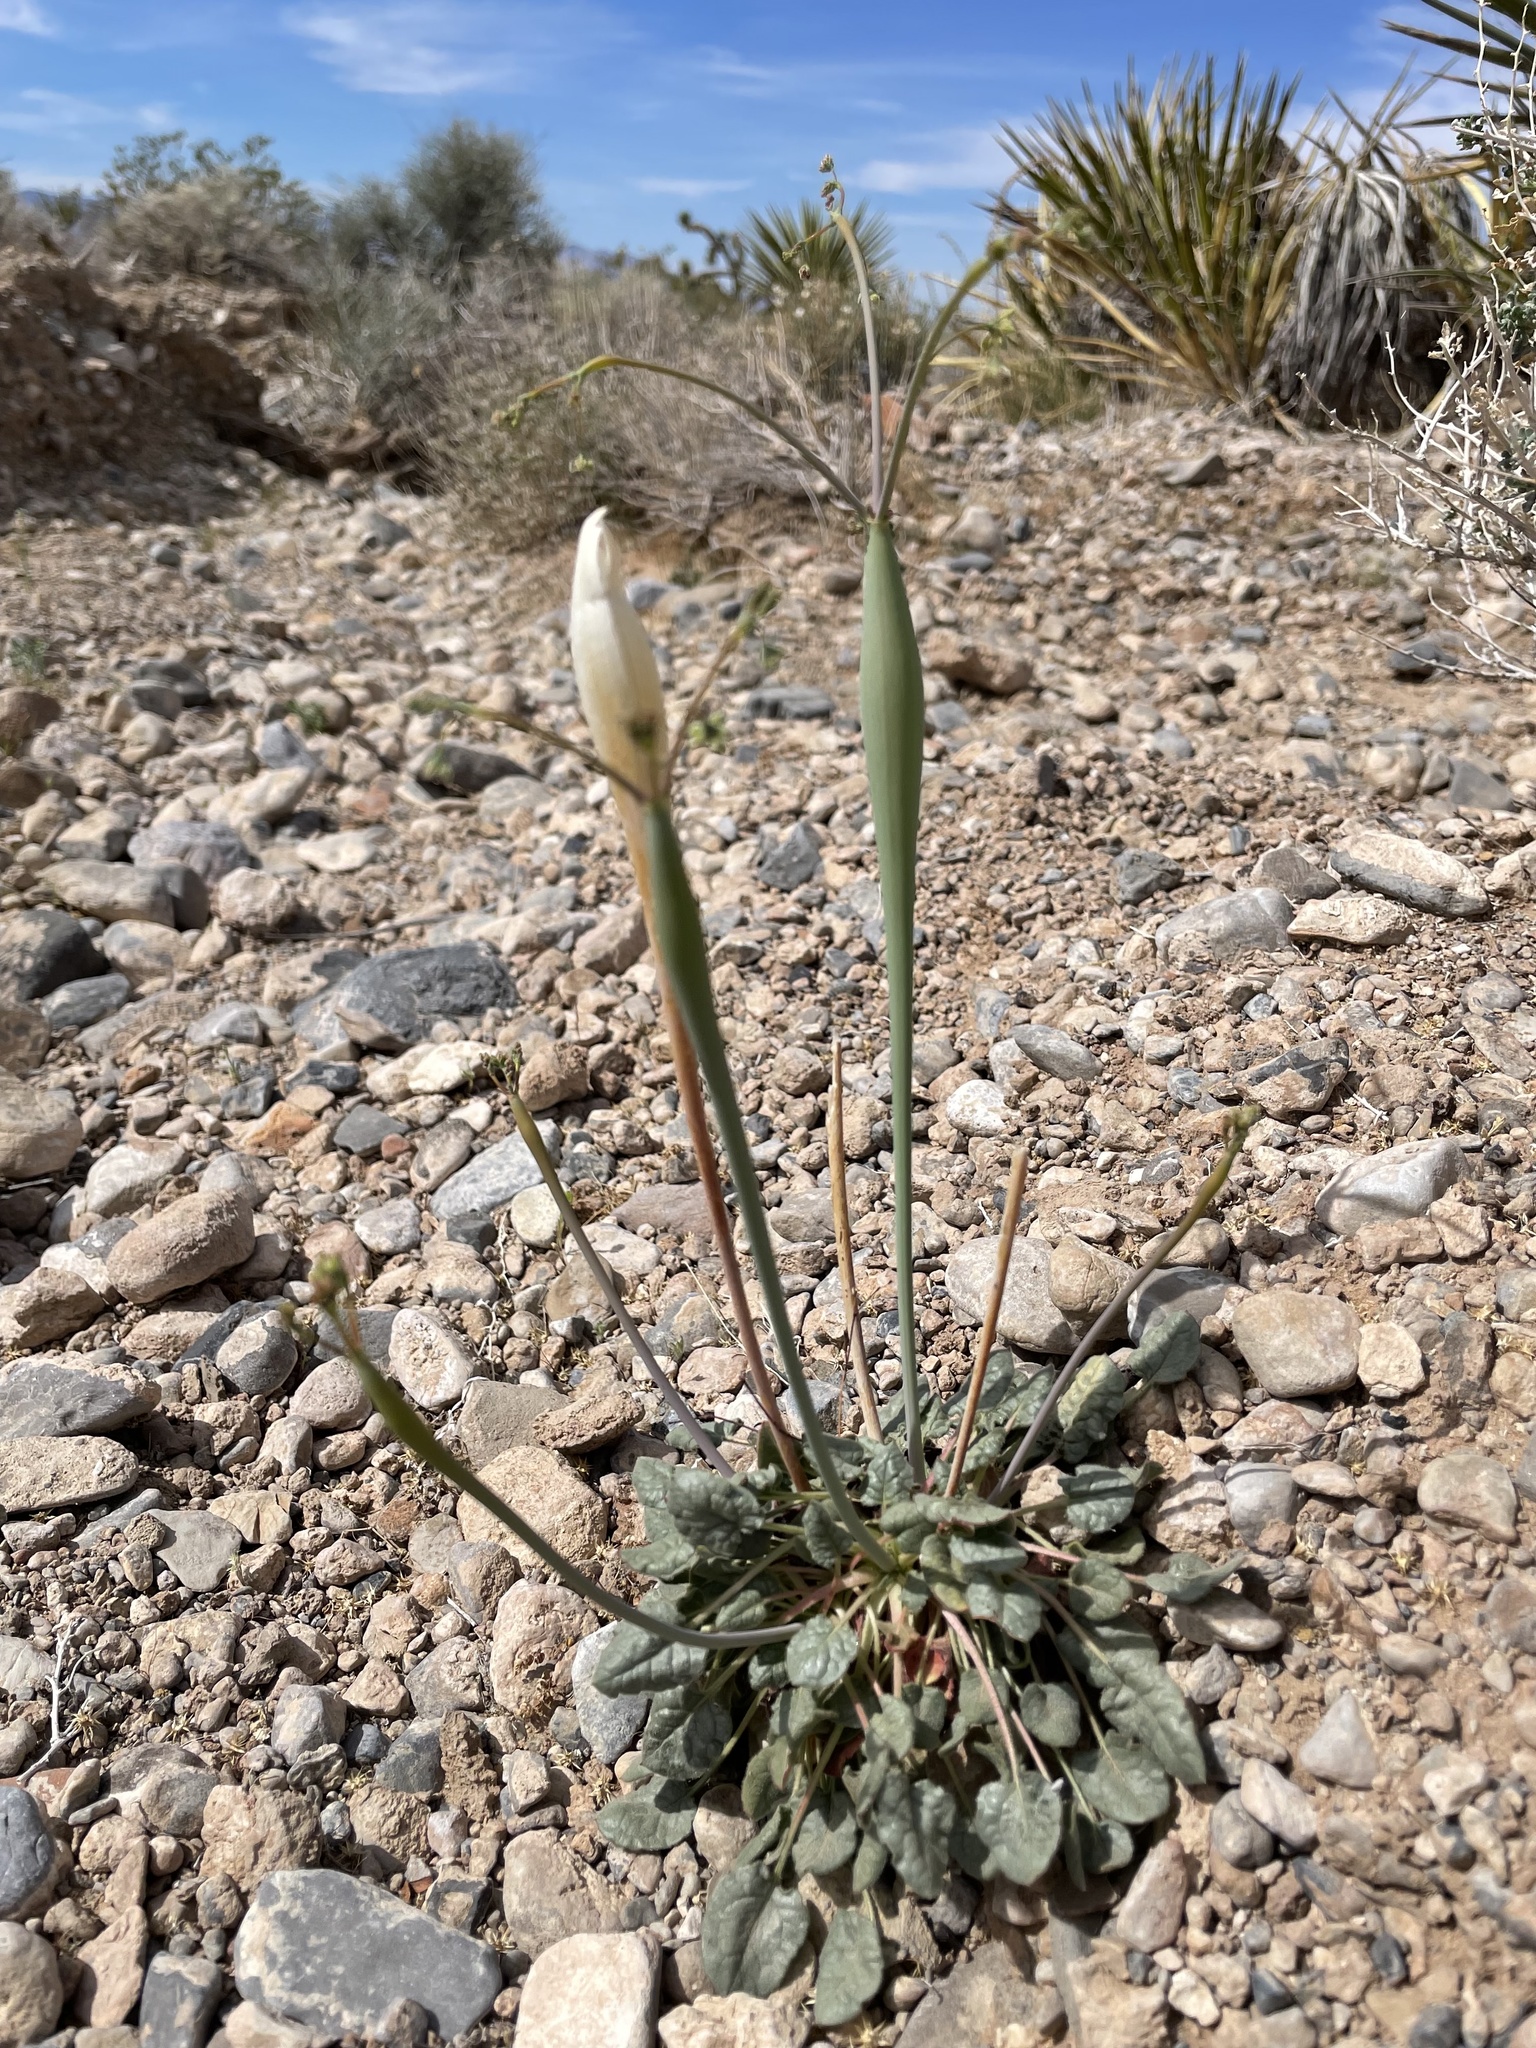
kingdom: Plantae
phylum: Tracheophyta
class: Magnoliopsida
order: Caryophyllales
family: Polygonaceae
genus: Eriogonum
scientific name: Eriogonum inflatum
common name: Desert trumpet
